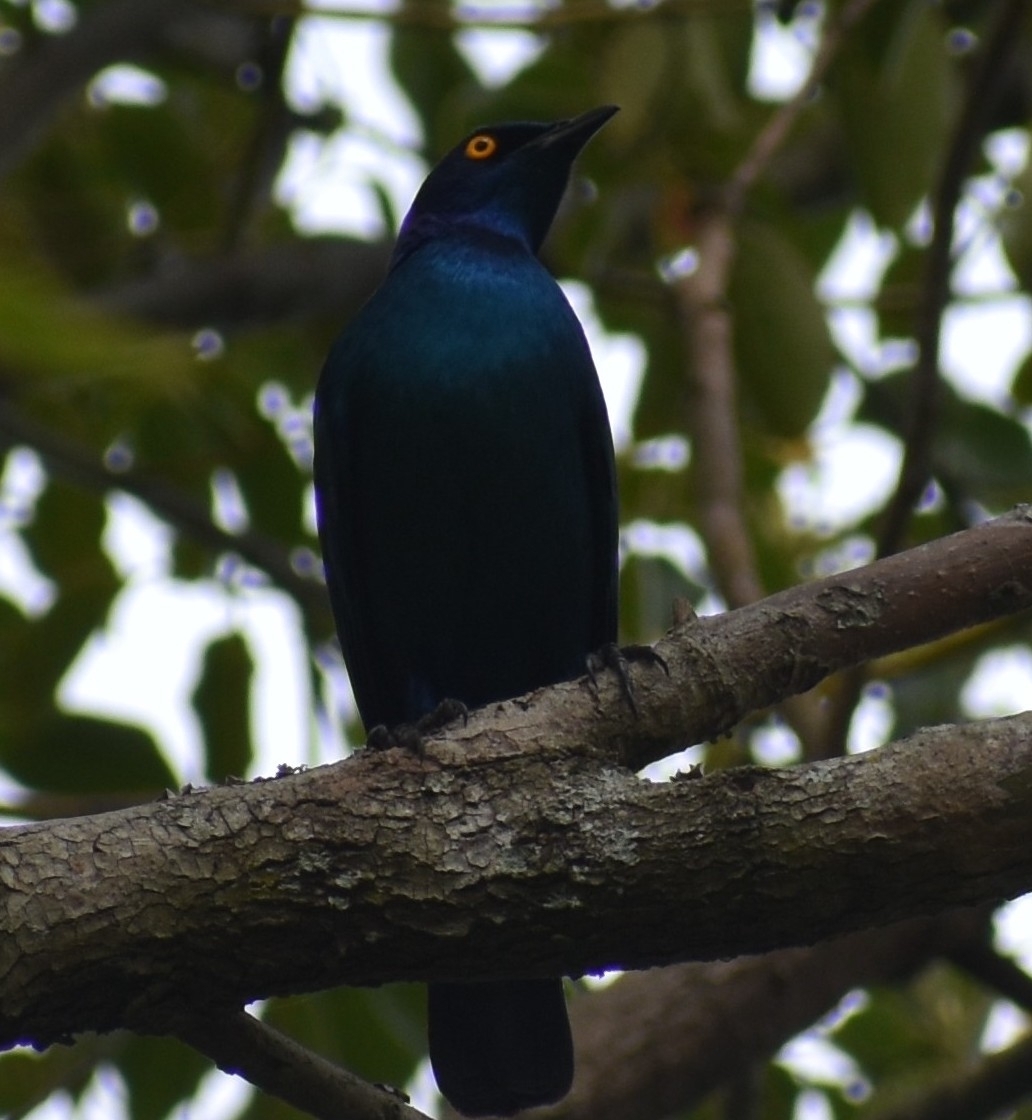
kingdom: Animalia
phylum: Chordata
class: Aves
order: Passeriformes
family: Sturnidae
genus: Lamprotornis
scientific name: Lamprotornis nitens
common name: Cape starling
